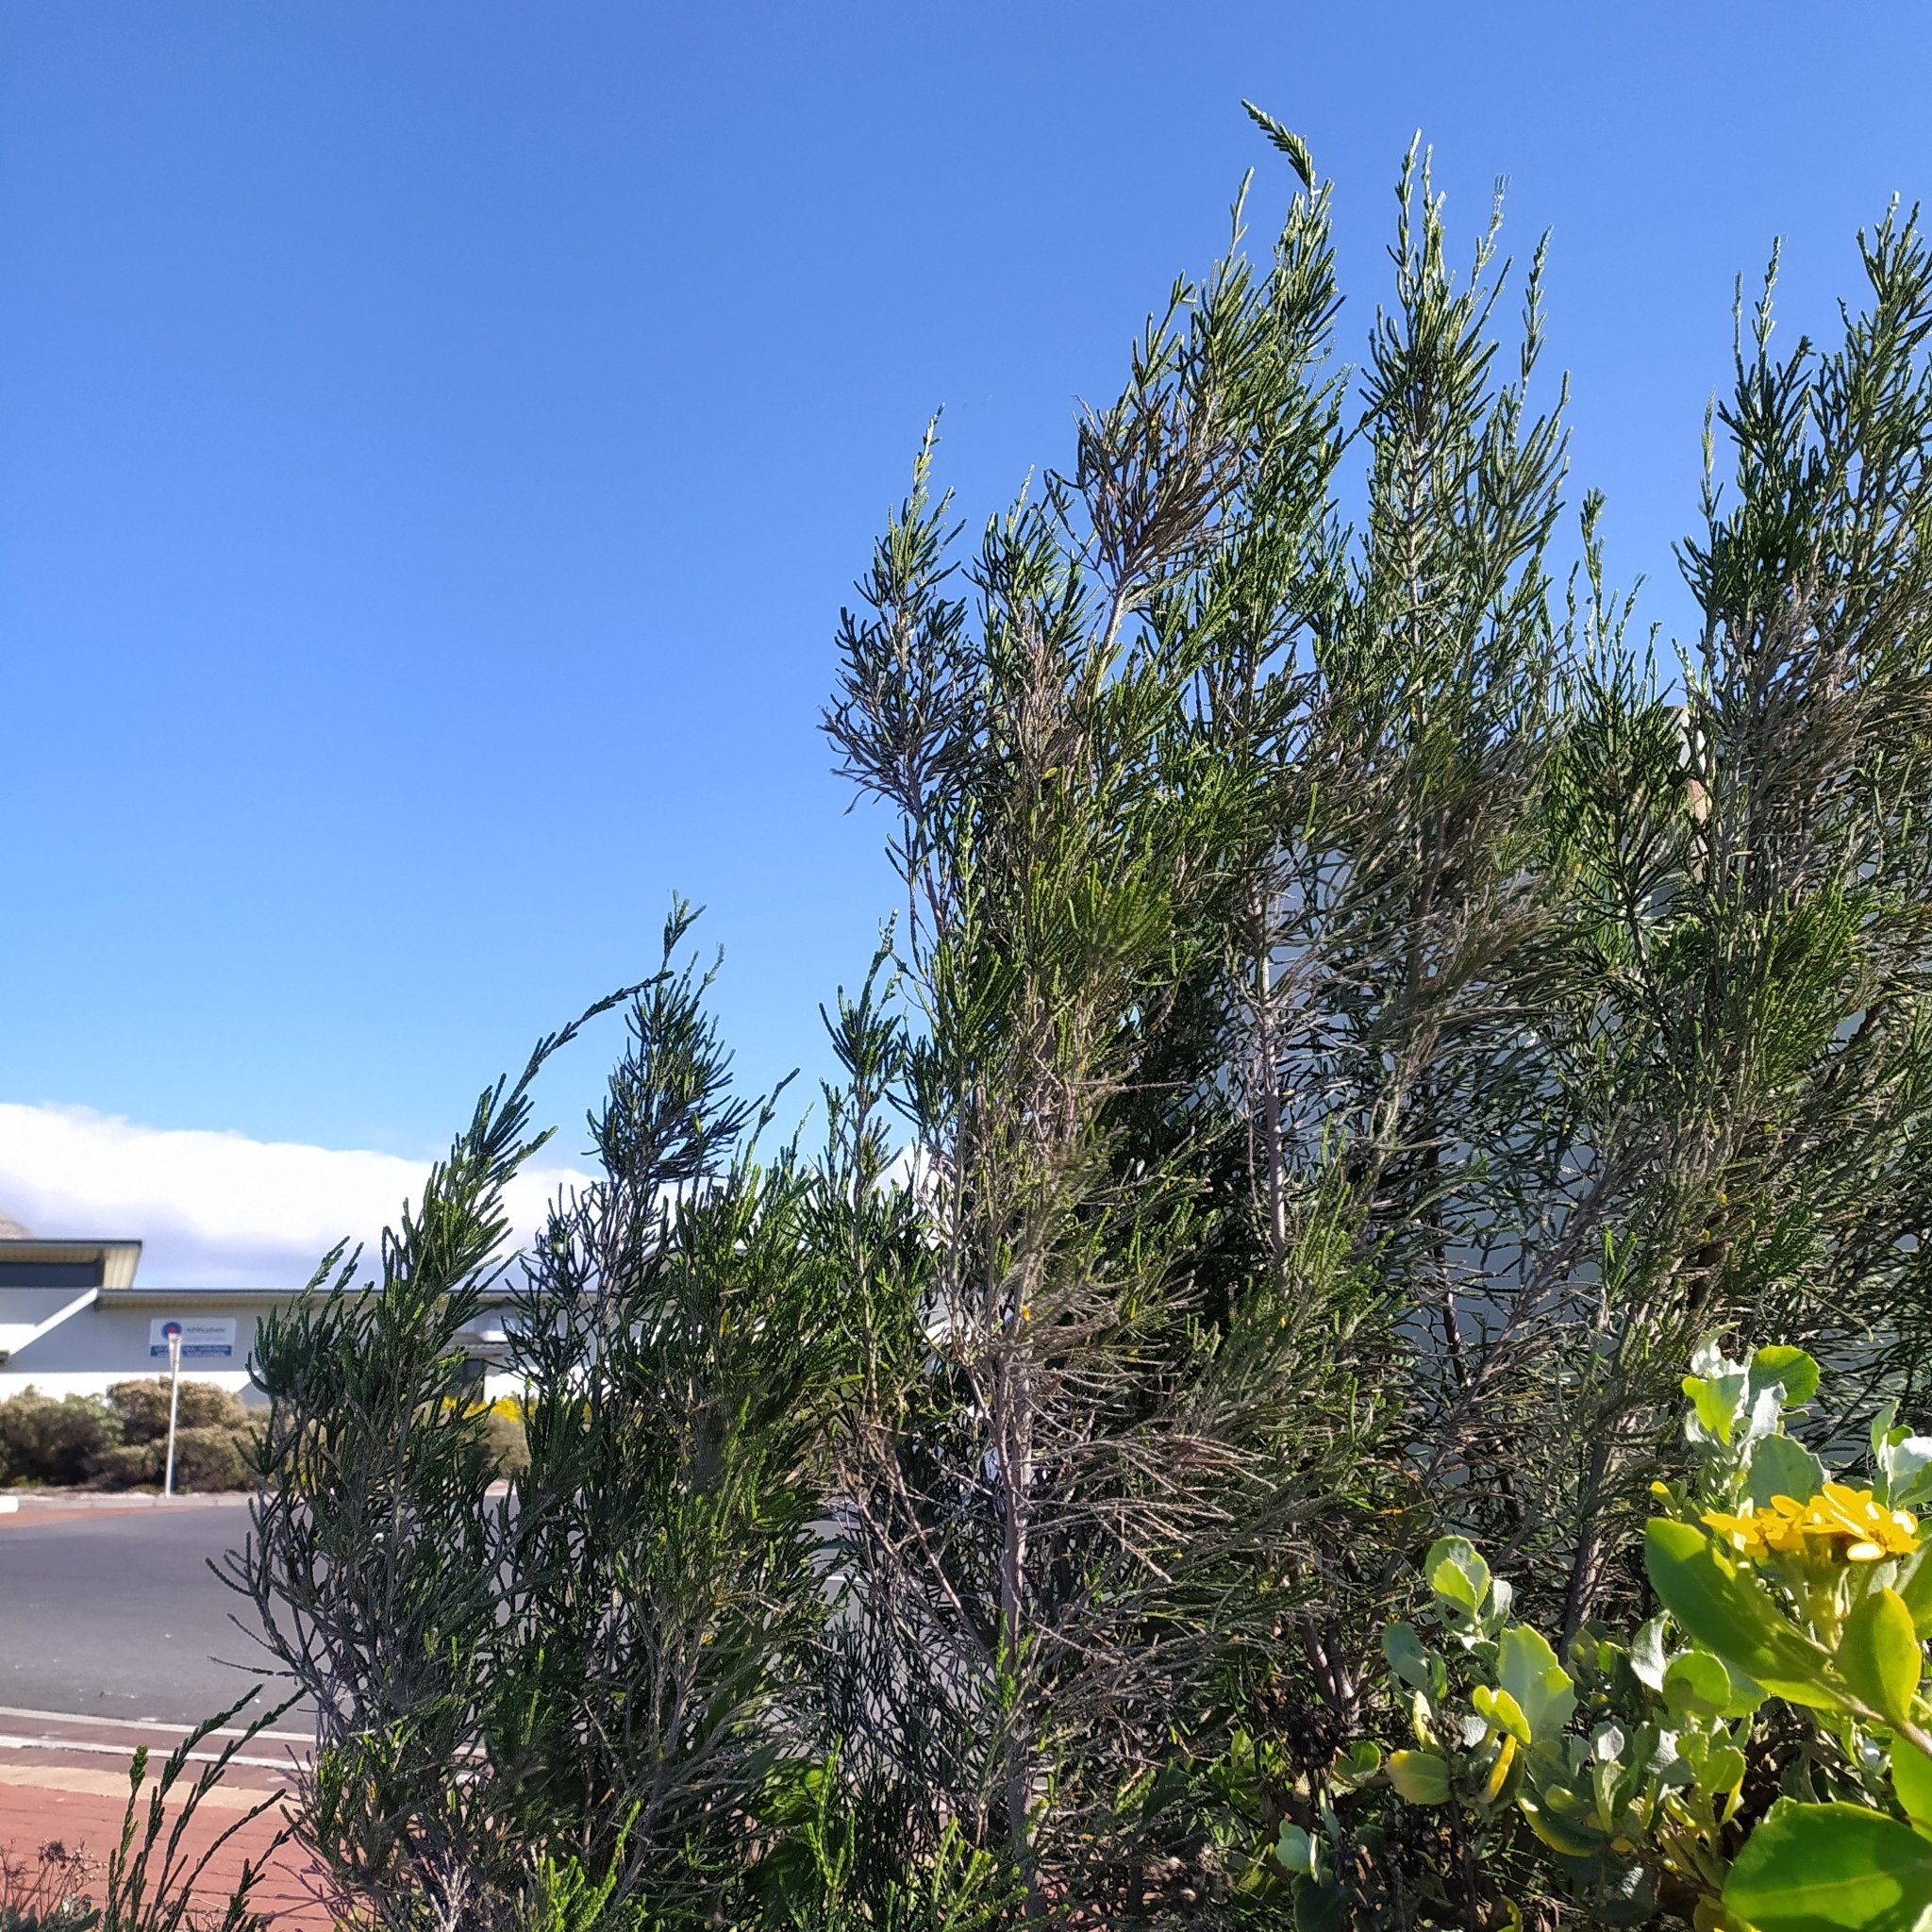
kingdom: Plantae
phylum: Tracheophyta
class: Magnoliopsida
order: Malvales
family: Thymelaeaceae
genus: Passerina
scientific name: Passerina corymbosa
